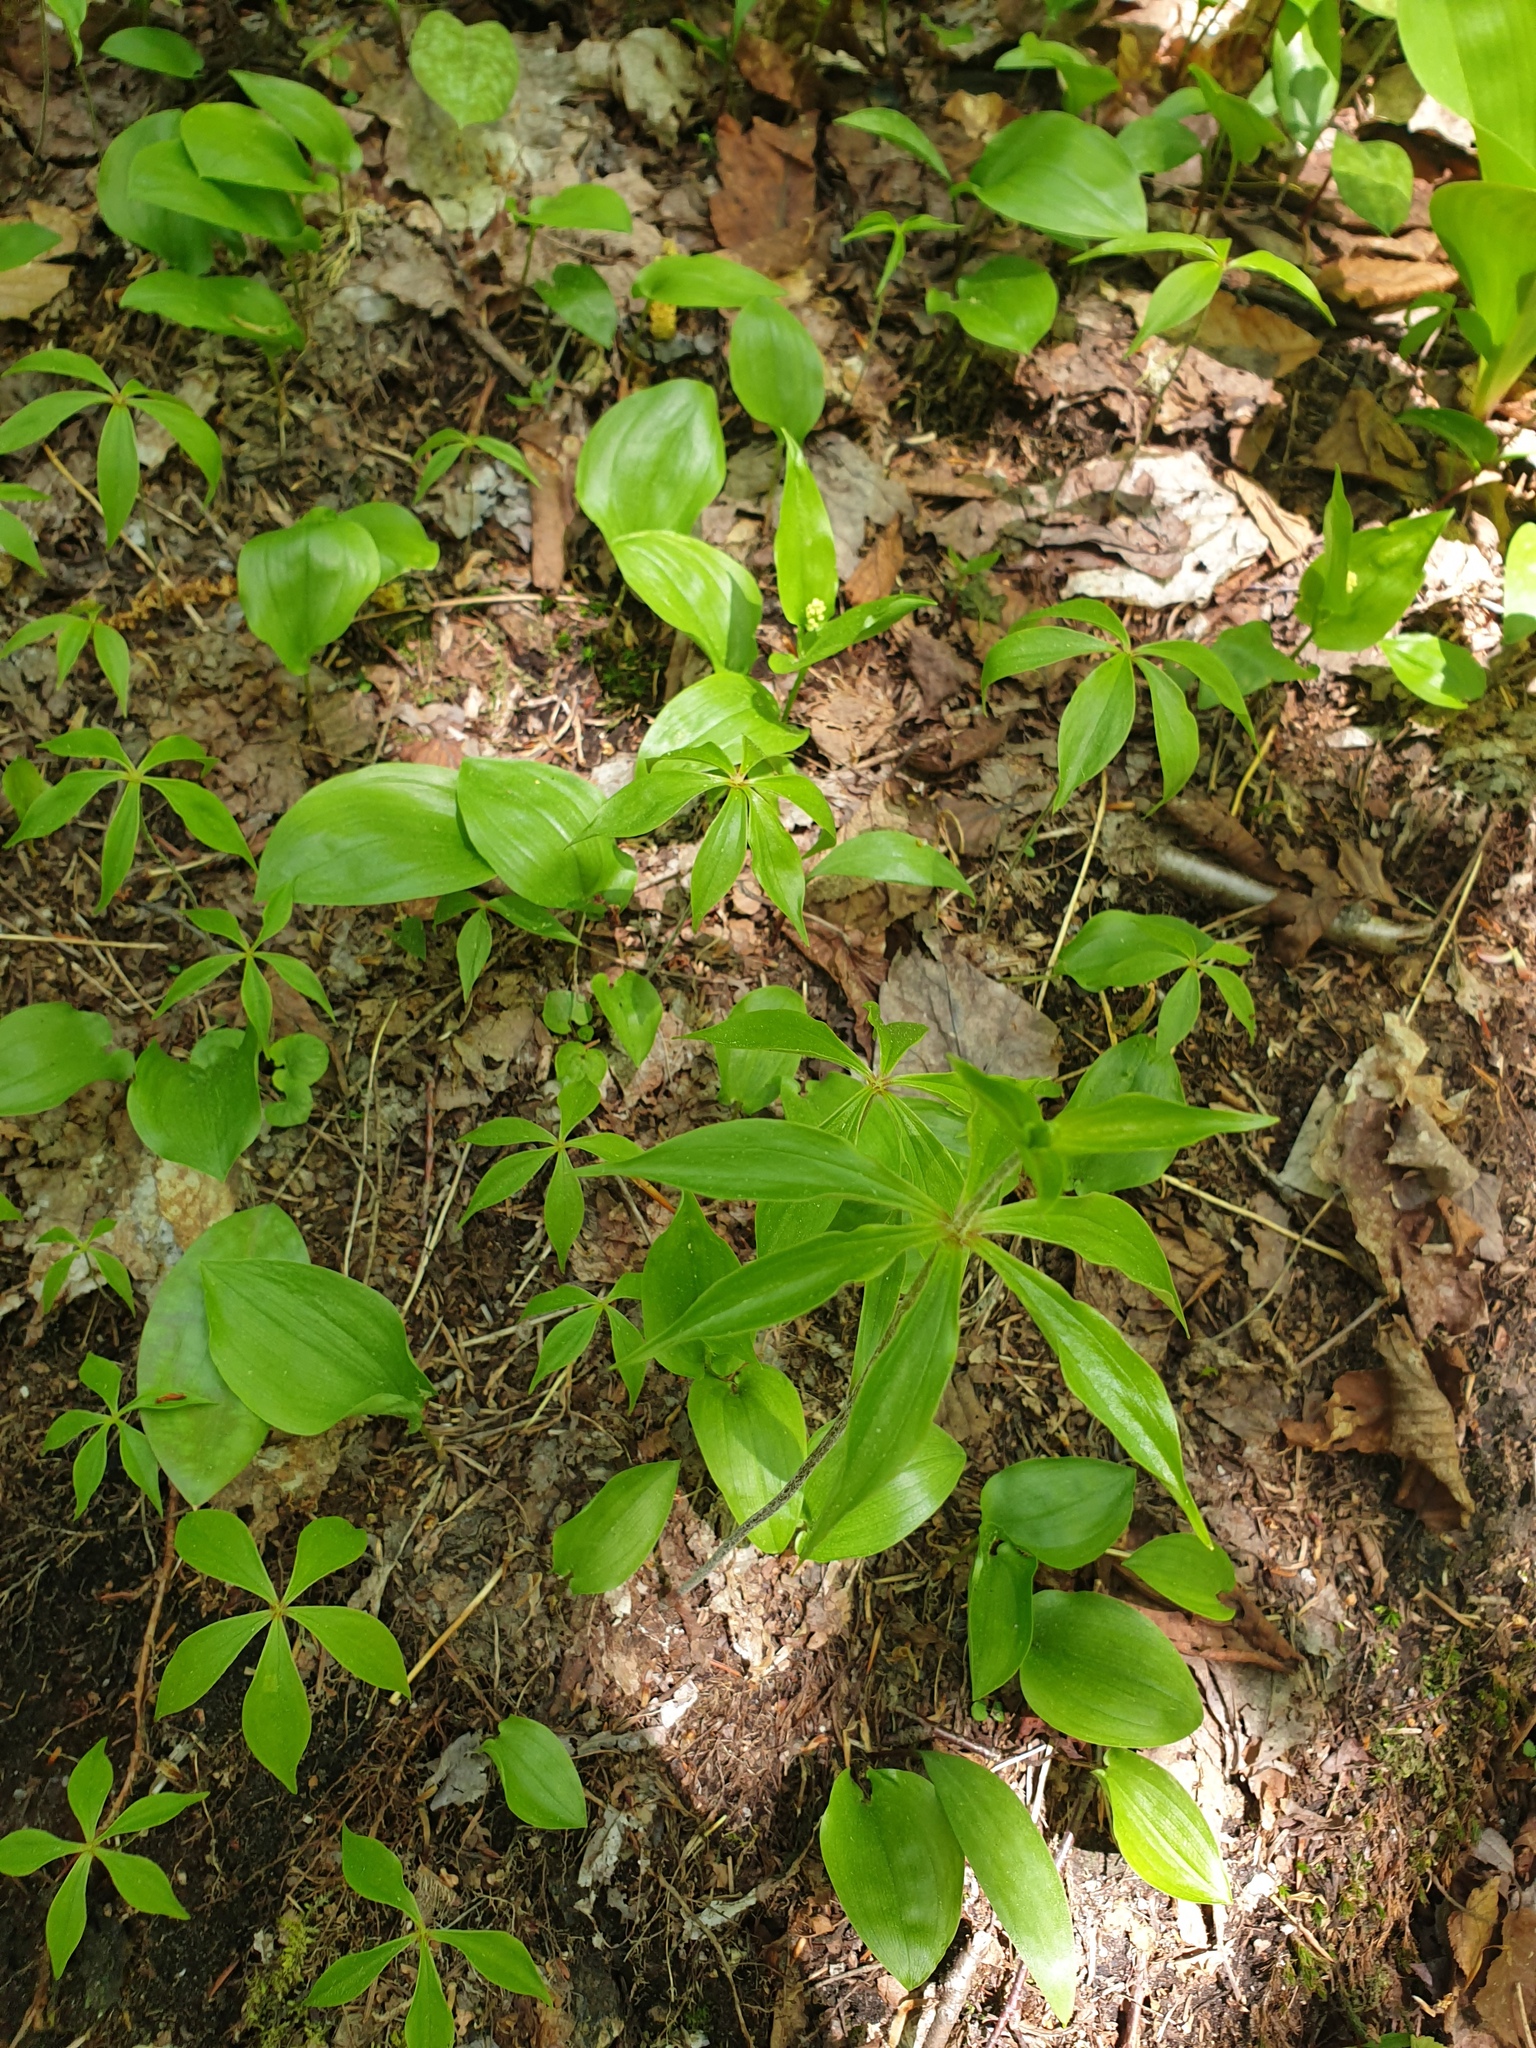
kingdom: Plantae
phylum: Tracheophyta
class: Liliopsida
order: Liliales
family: Liliaceae
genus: Erythronium
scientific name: Erythronium americanum
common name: Yellow adder's-tongue
